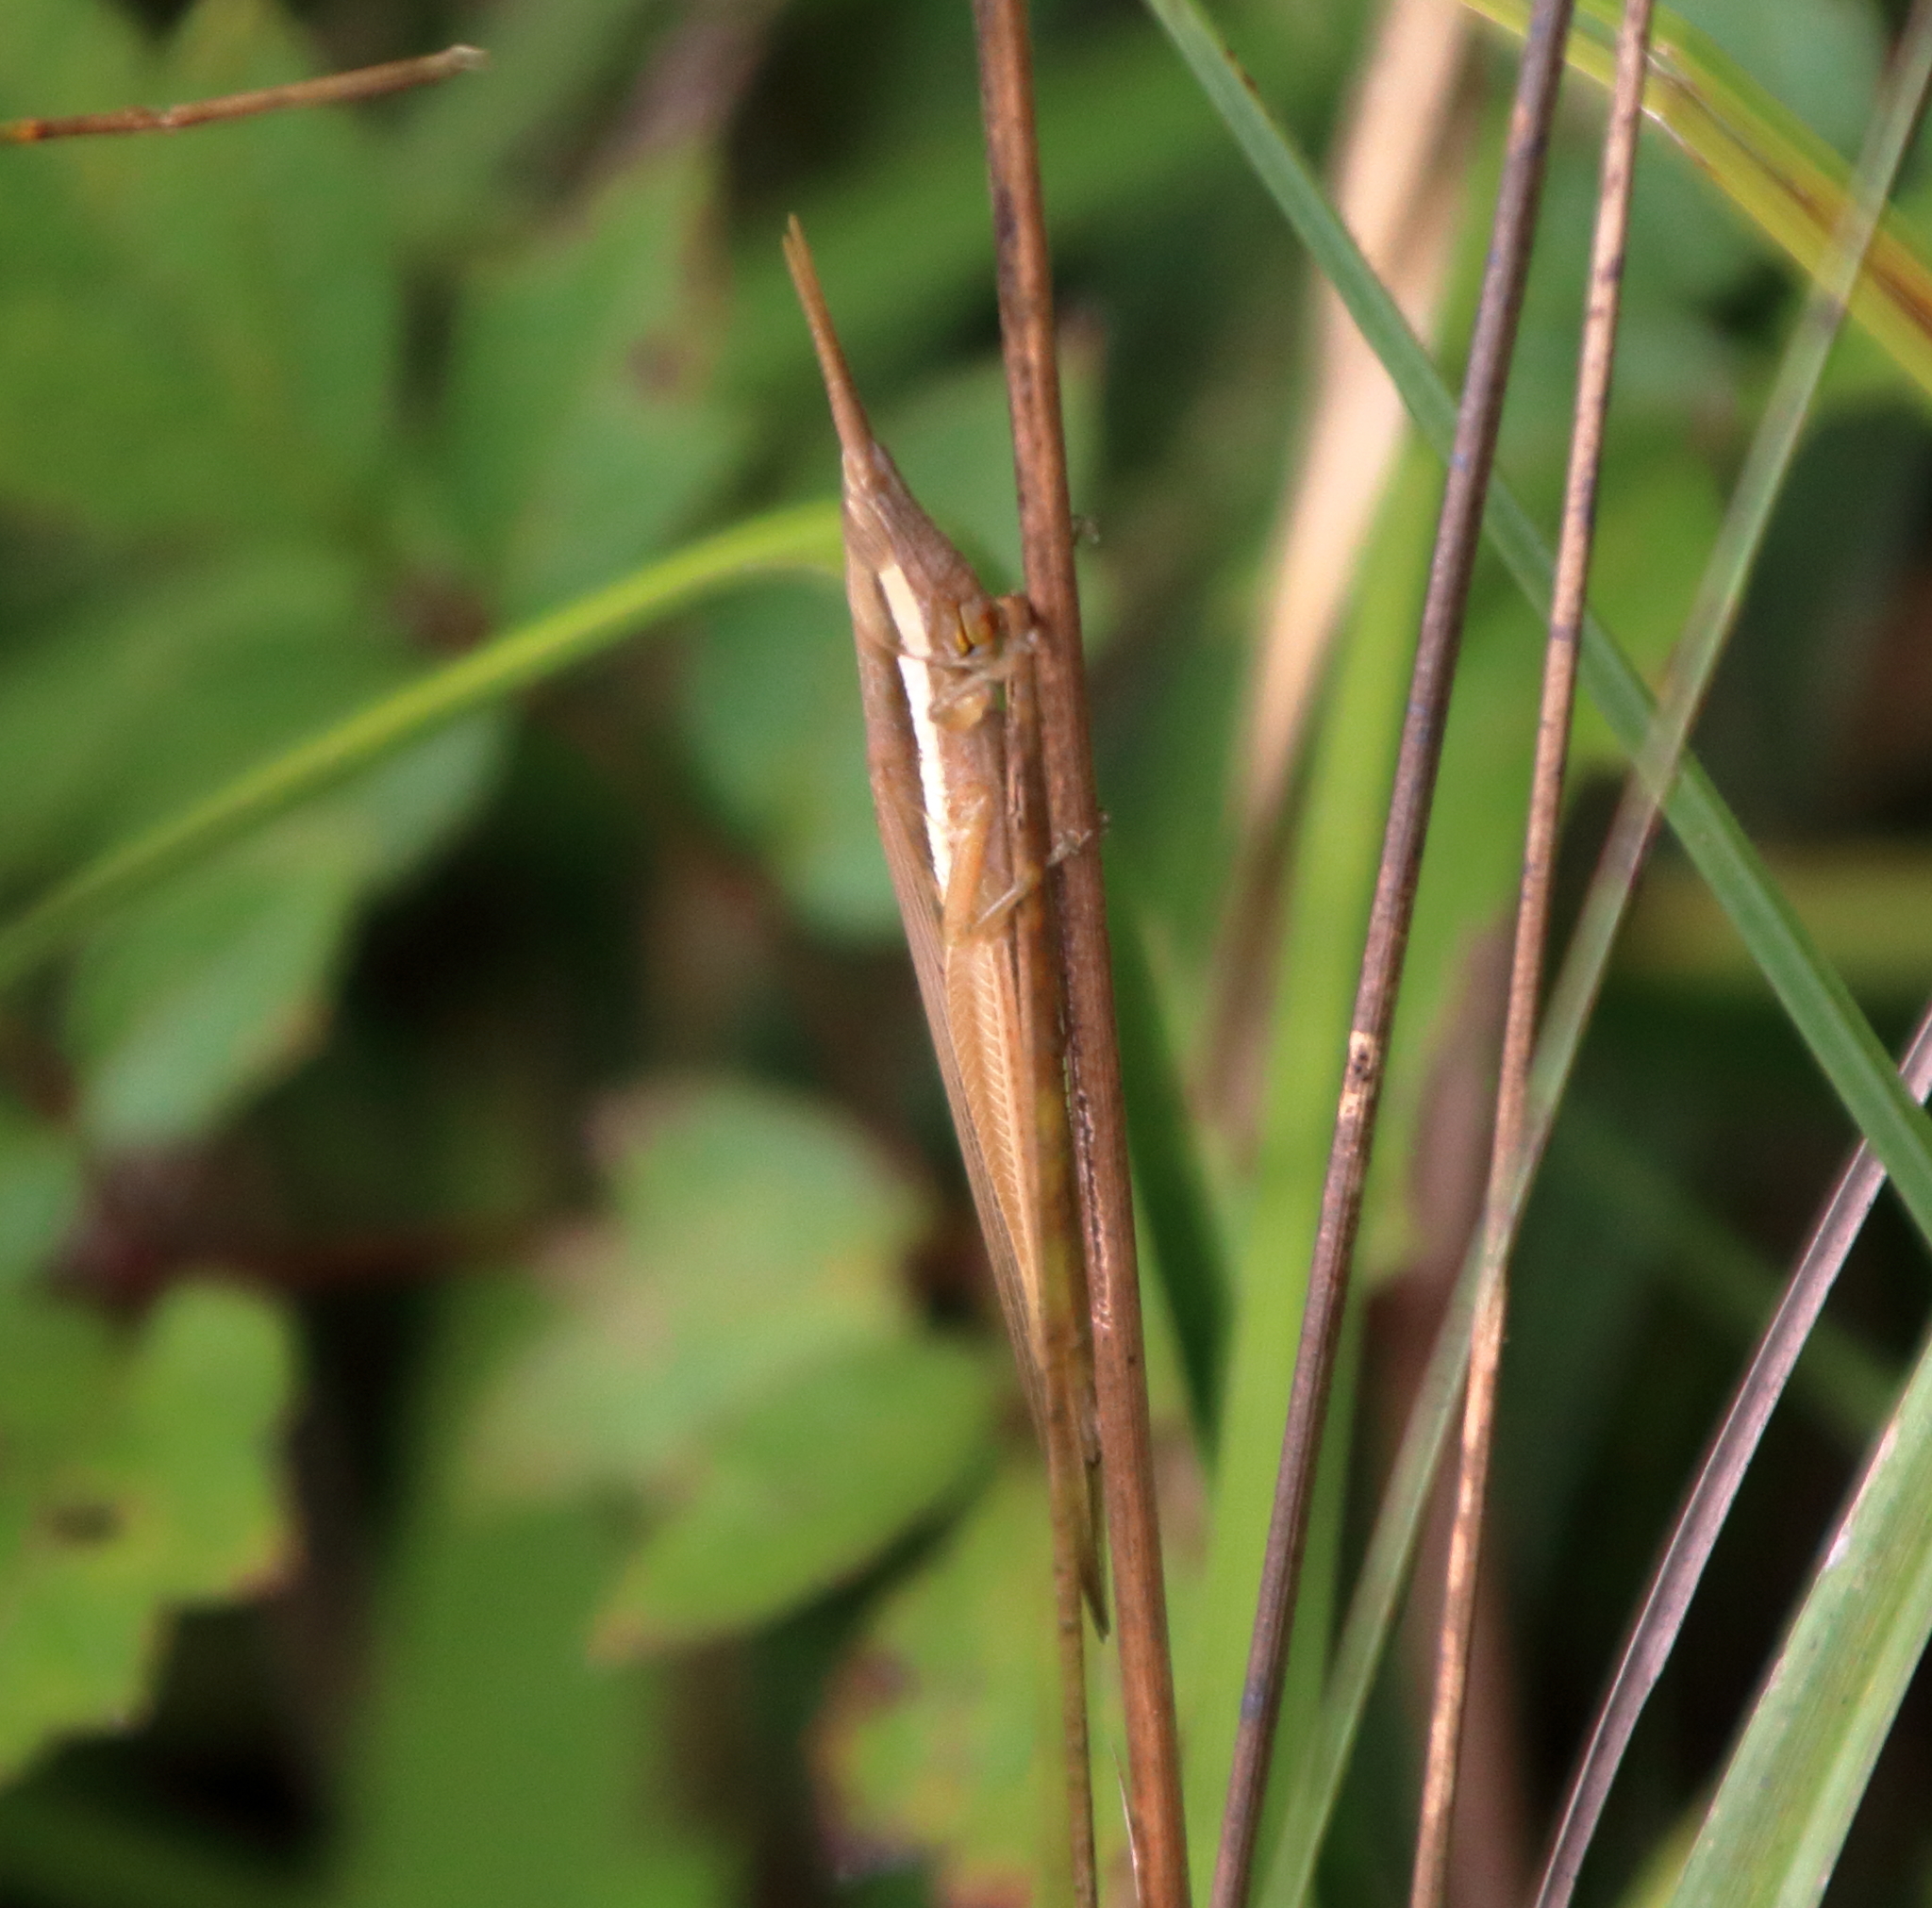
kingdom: Animalia
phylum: Arthropoda
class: Insecta
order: Orthoptera
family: Acrididae
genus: Leptysma
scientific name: Leptysma marginicollis
